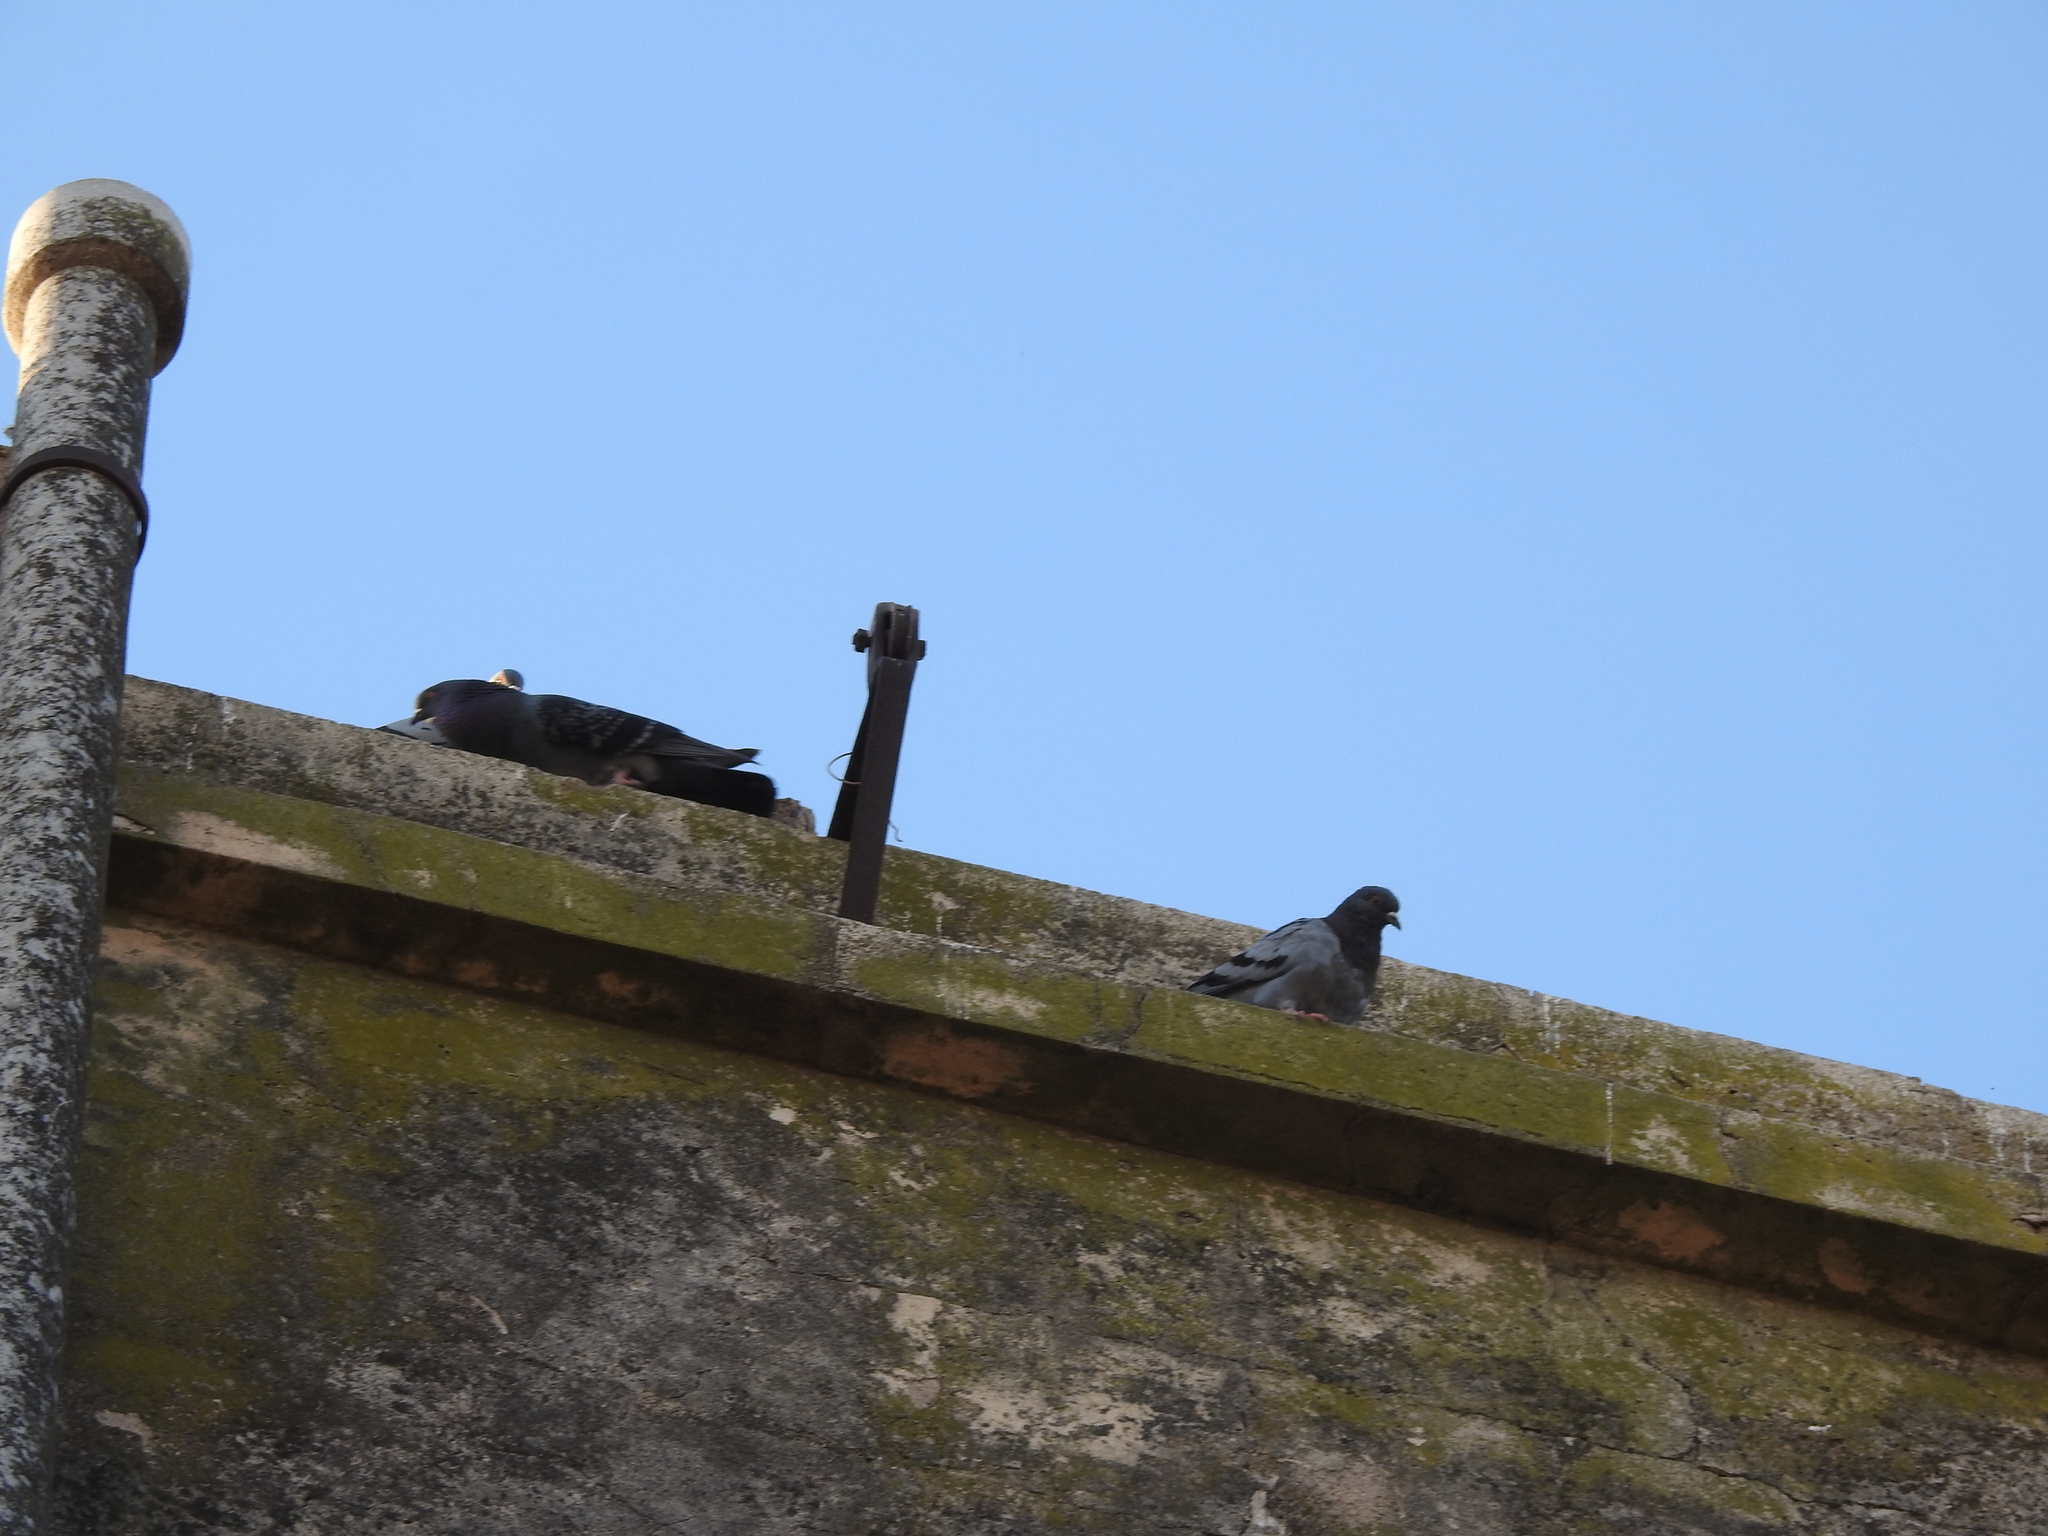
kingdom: Animalia
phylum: Chordata
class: Aves
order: Columbiformes
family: Columbidae
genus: Columba
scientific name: Columba livia
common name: Rock pigeon
